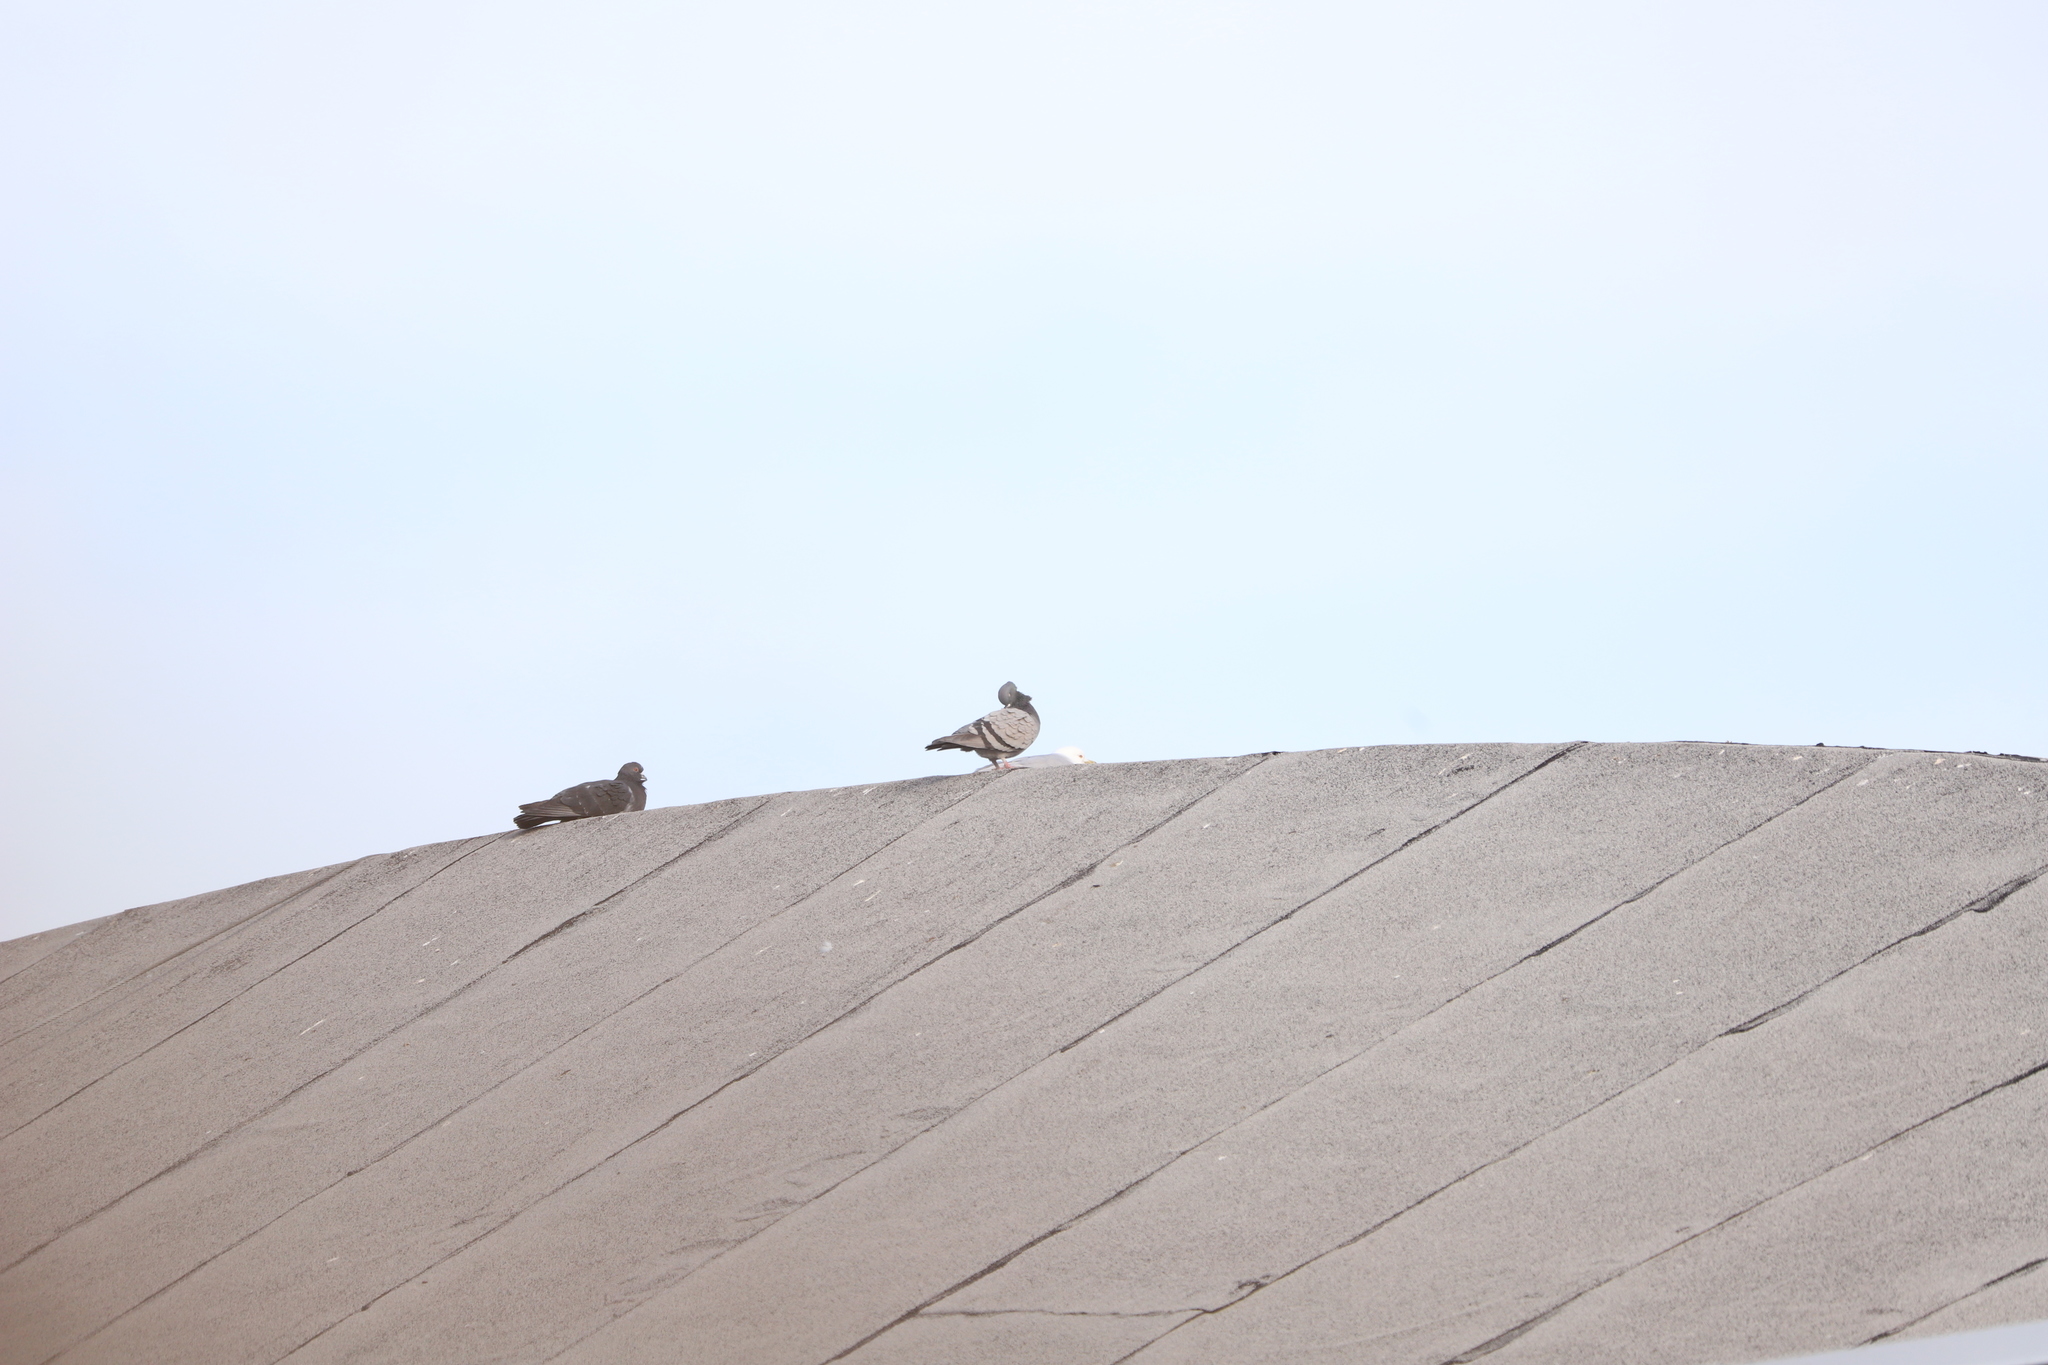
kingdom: Animalia
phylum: Chordata
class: Aves
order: Columbiformes
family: Columbidae
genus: Columba
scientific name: Columba livia
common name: Rock pigeon
